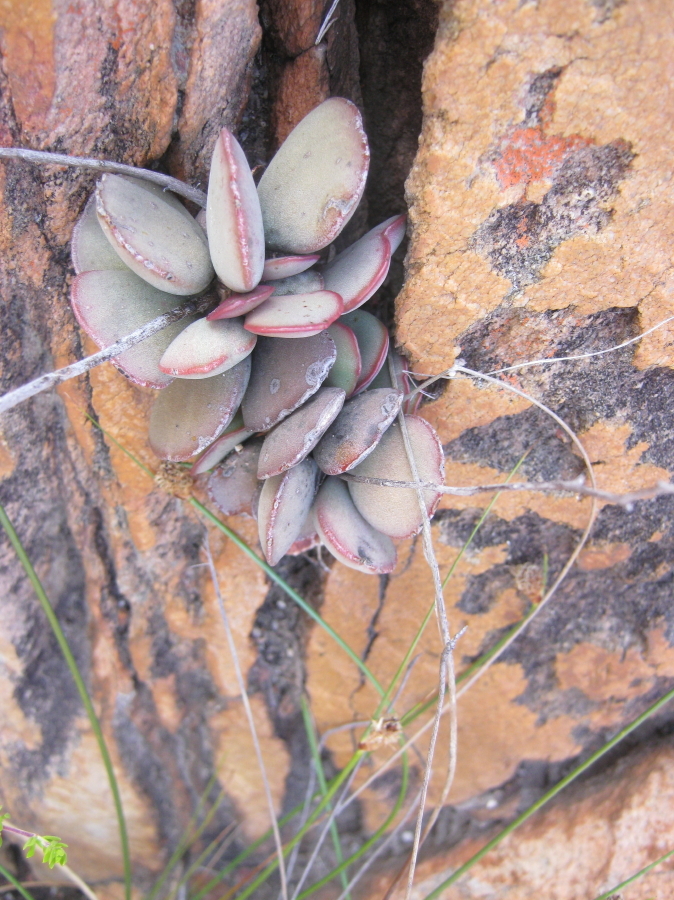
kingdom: Plantae
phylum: Tracheophyta
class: Magnoliopsida
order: Saxifragales
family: Crassulaceae
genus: Adromischus
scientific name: Adromischus inamoenus
